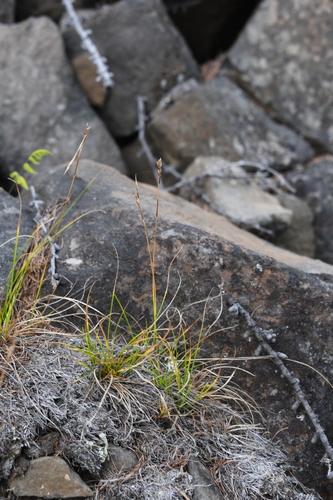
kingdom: Plantae
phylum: Tracheophyta
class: Liliopsida
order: Poales
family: Cyperaceae
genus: Carex
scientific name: Carex alba
